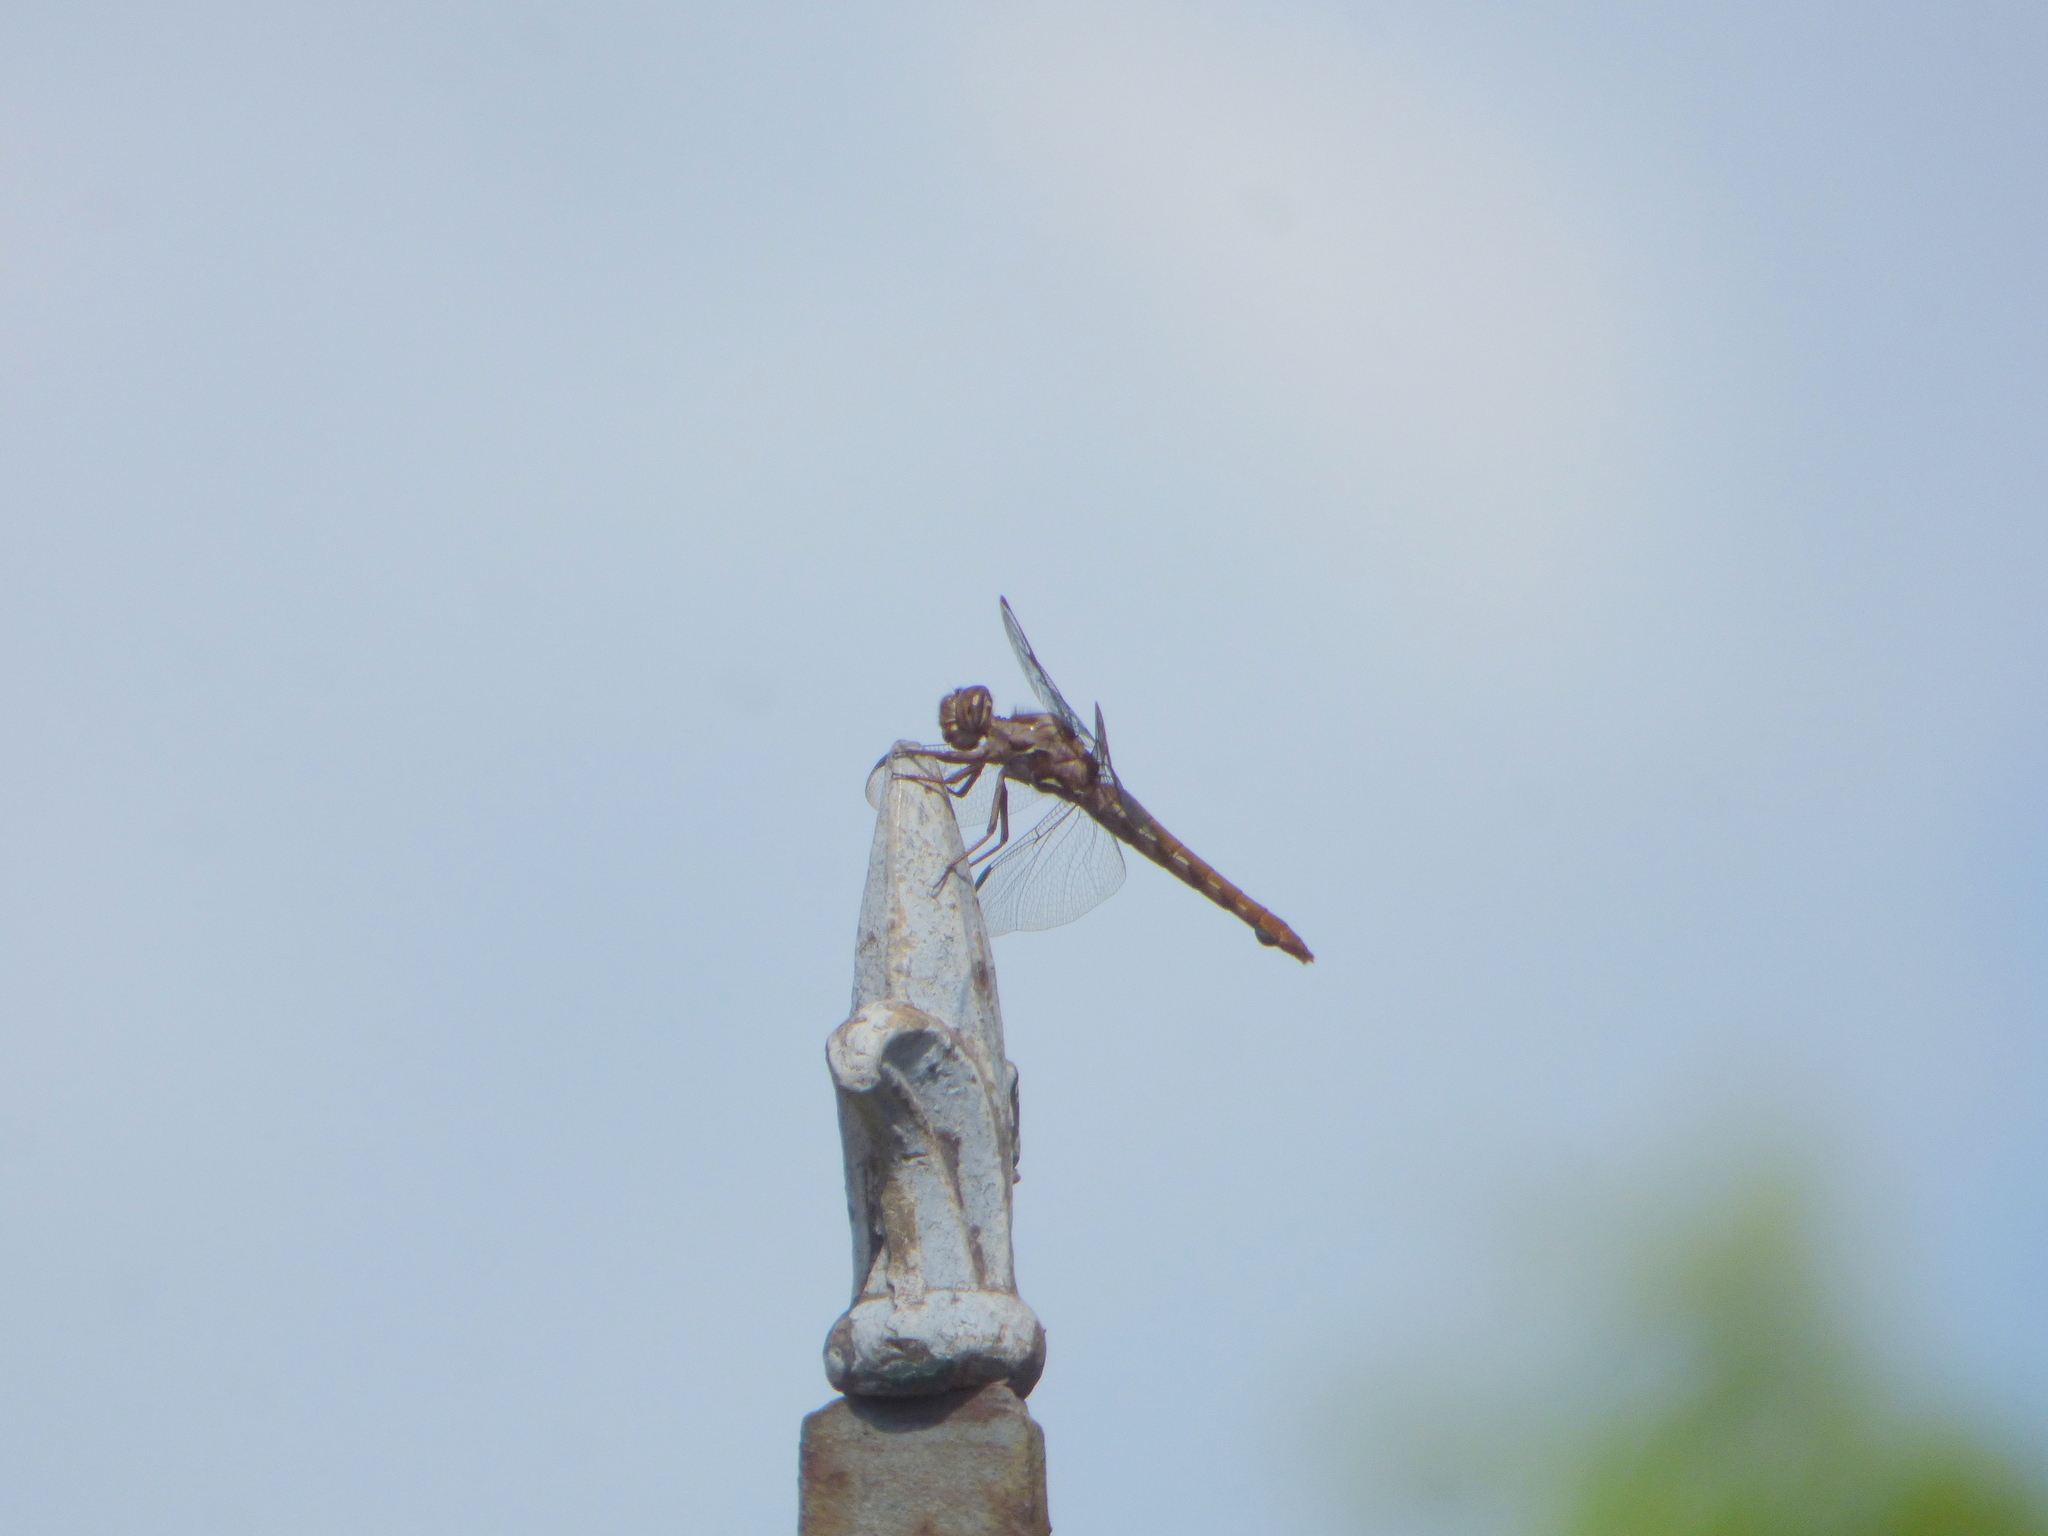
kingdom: Animalia
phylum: Arthropoda
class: Insecta
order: Odonata
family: Libellulidae
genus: Orthemis
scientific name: Orthemis nodiplaga
